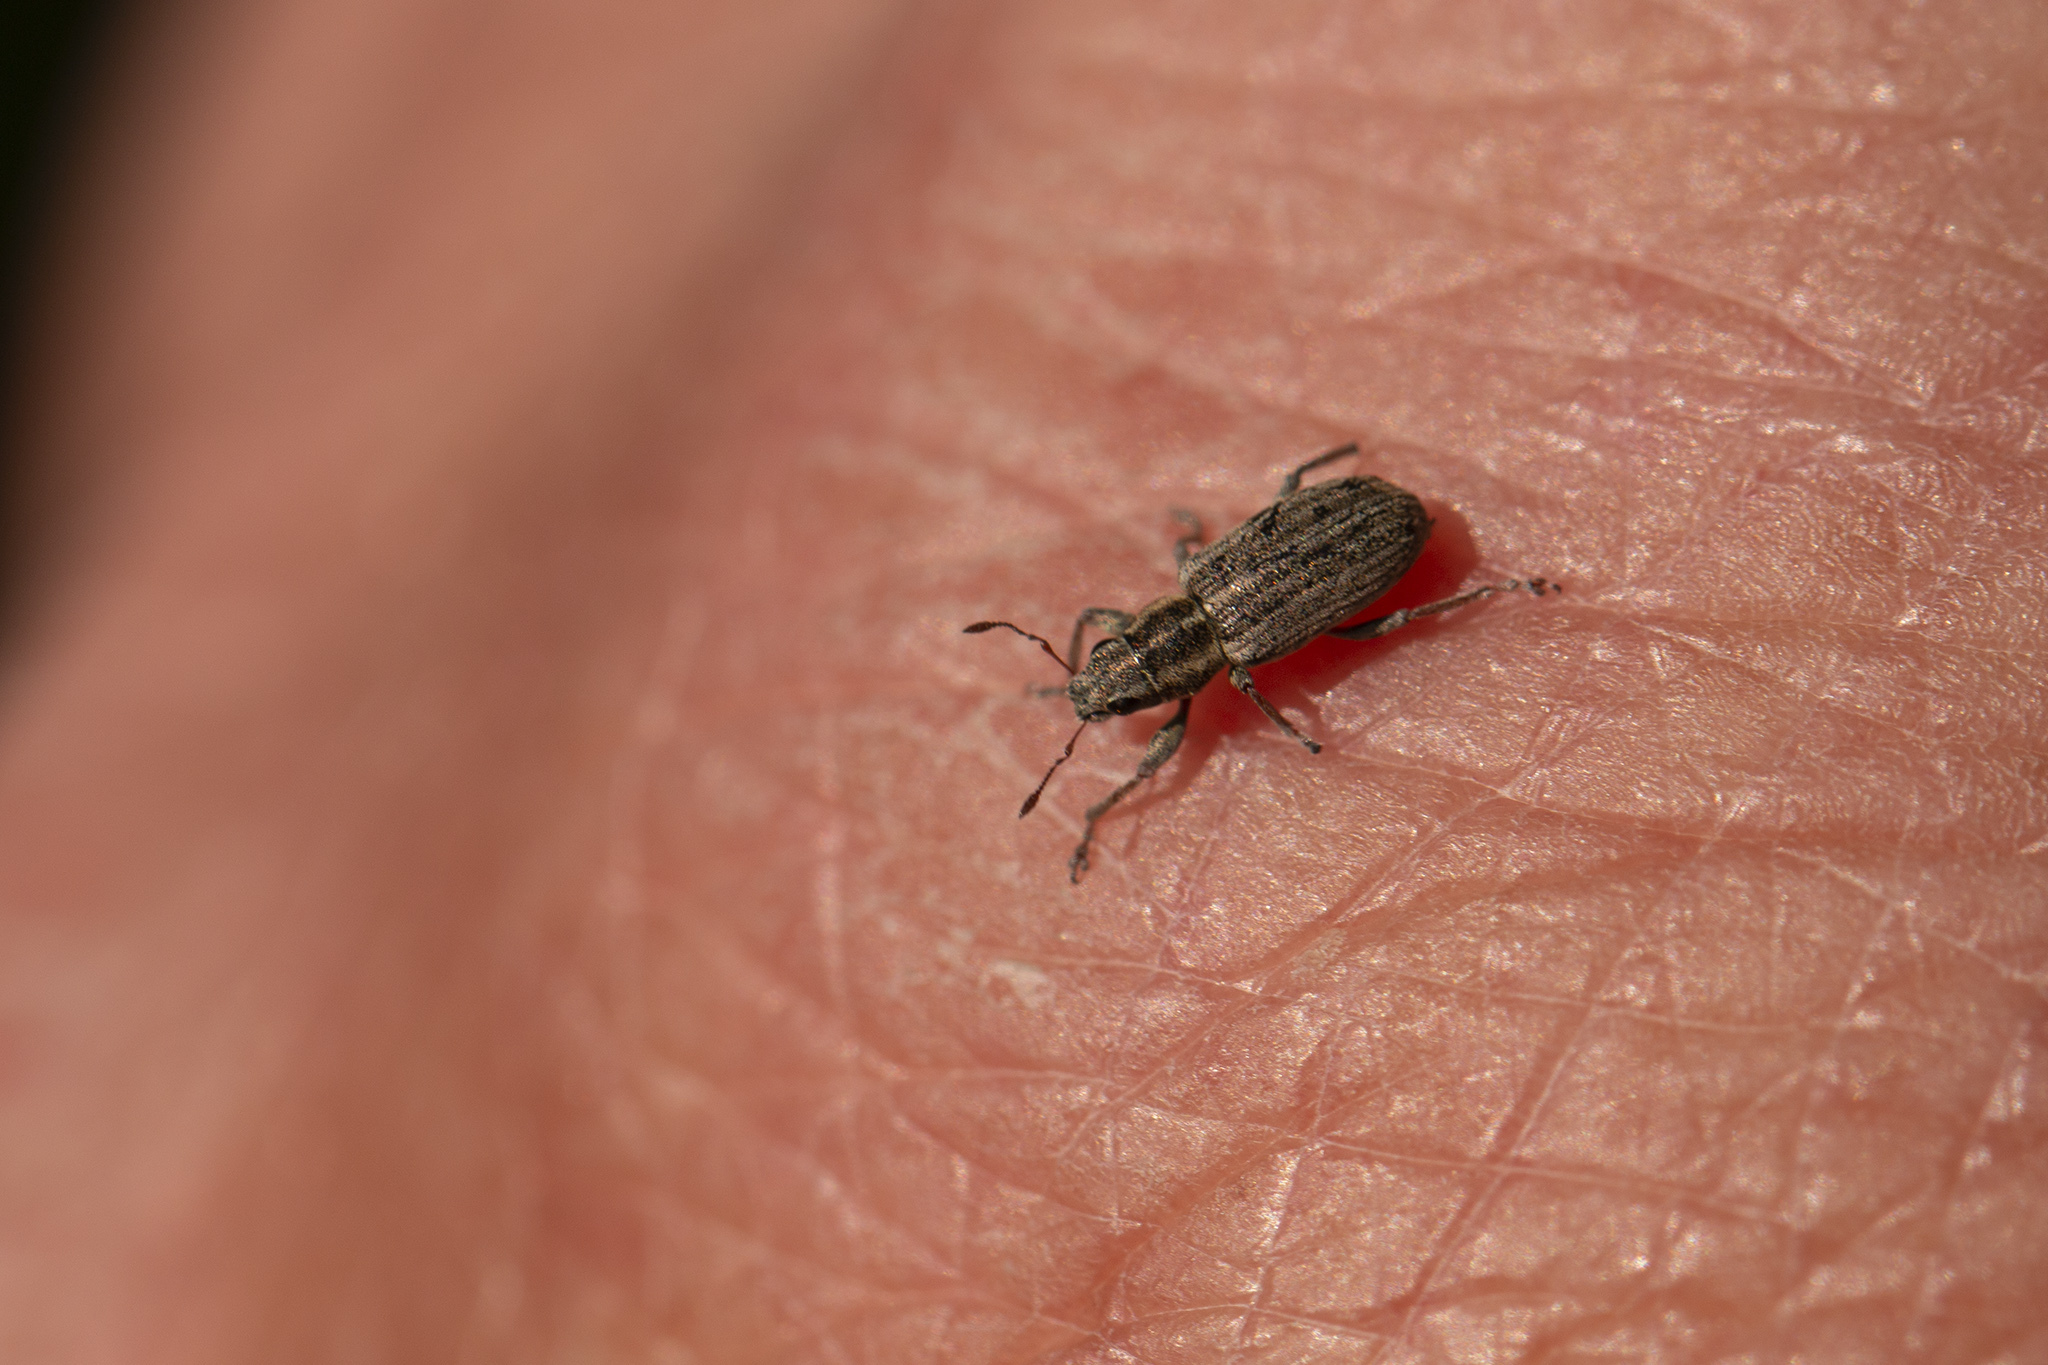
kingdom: Animalia
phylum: Arthropoda
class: Insecta
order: Coleoptera
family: Curculionidae
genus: Sitona
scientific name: Sitona lineatus
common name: Weevil
